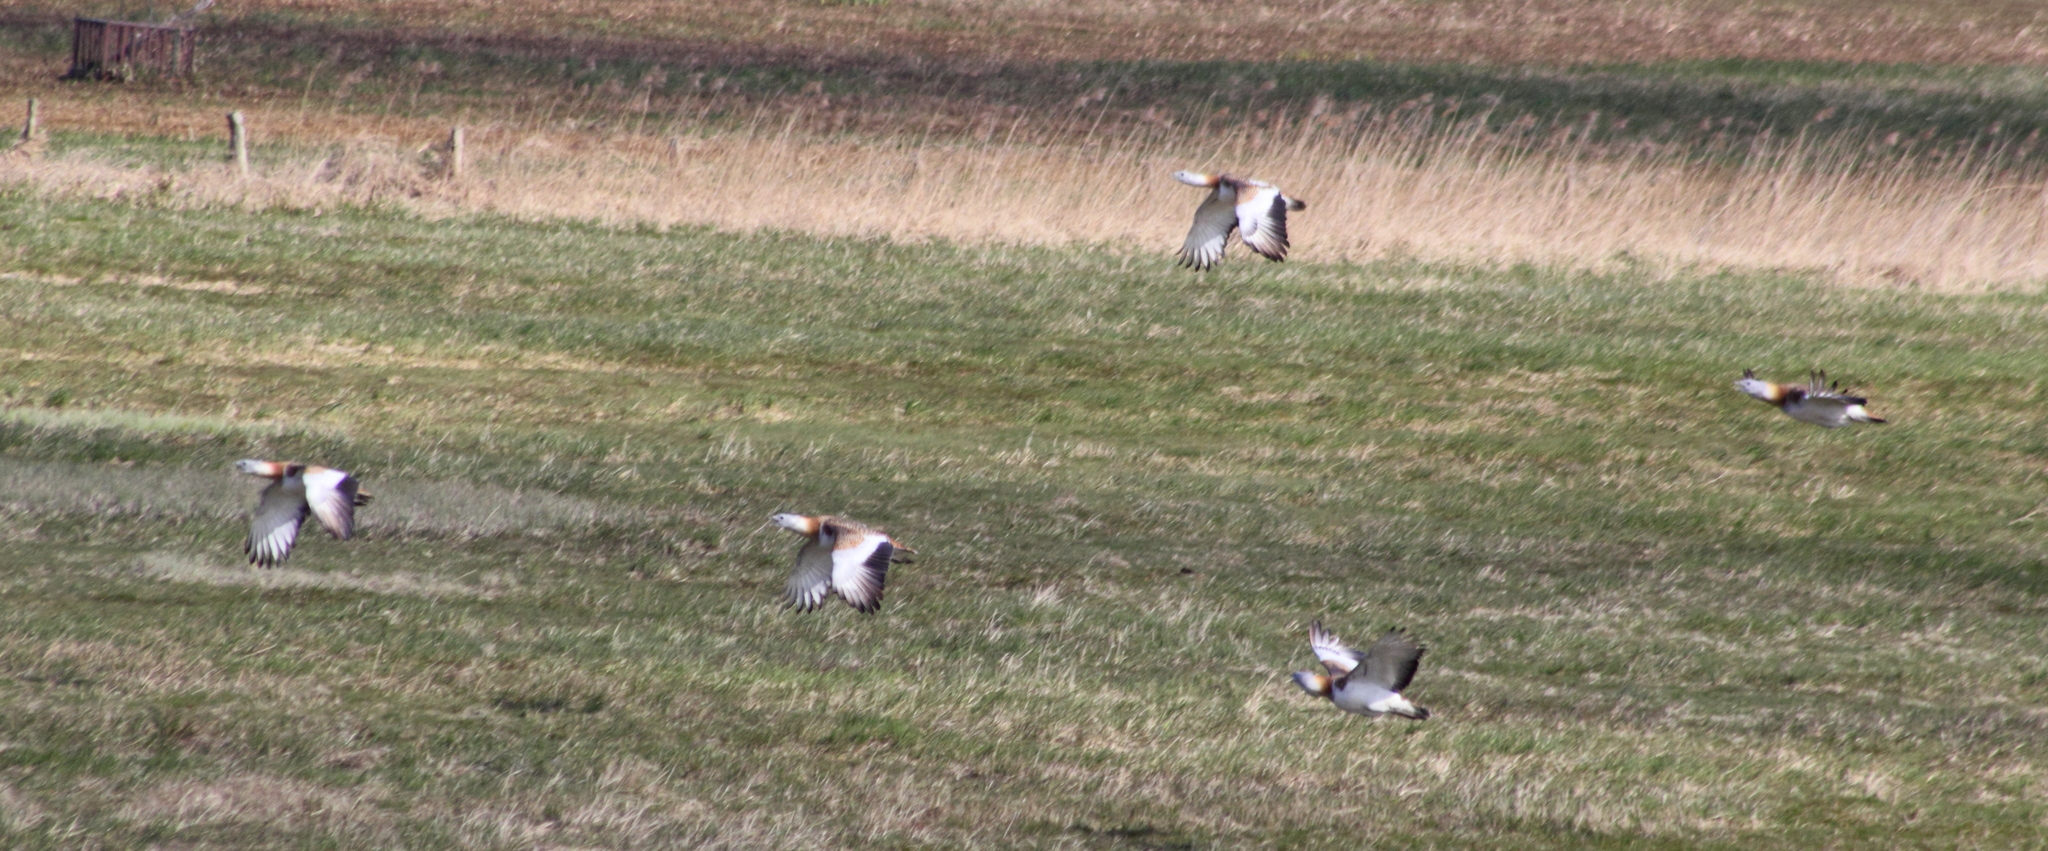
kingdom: Animalia
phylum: Chordata
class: Aves
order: Otidiformes
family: Otididae
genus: Otis
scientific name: Otis tarda
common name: Great bustard
